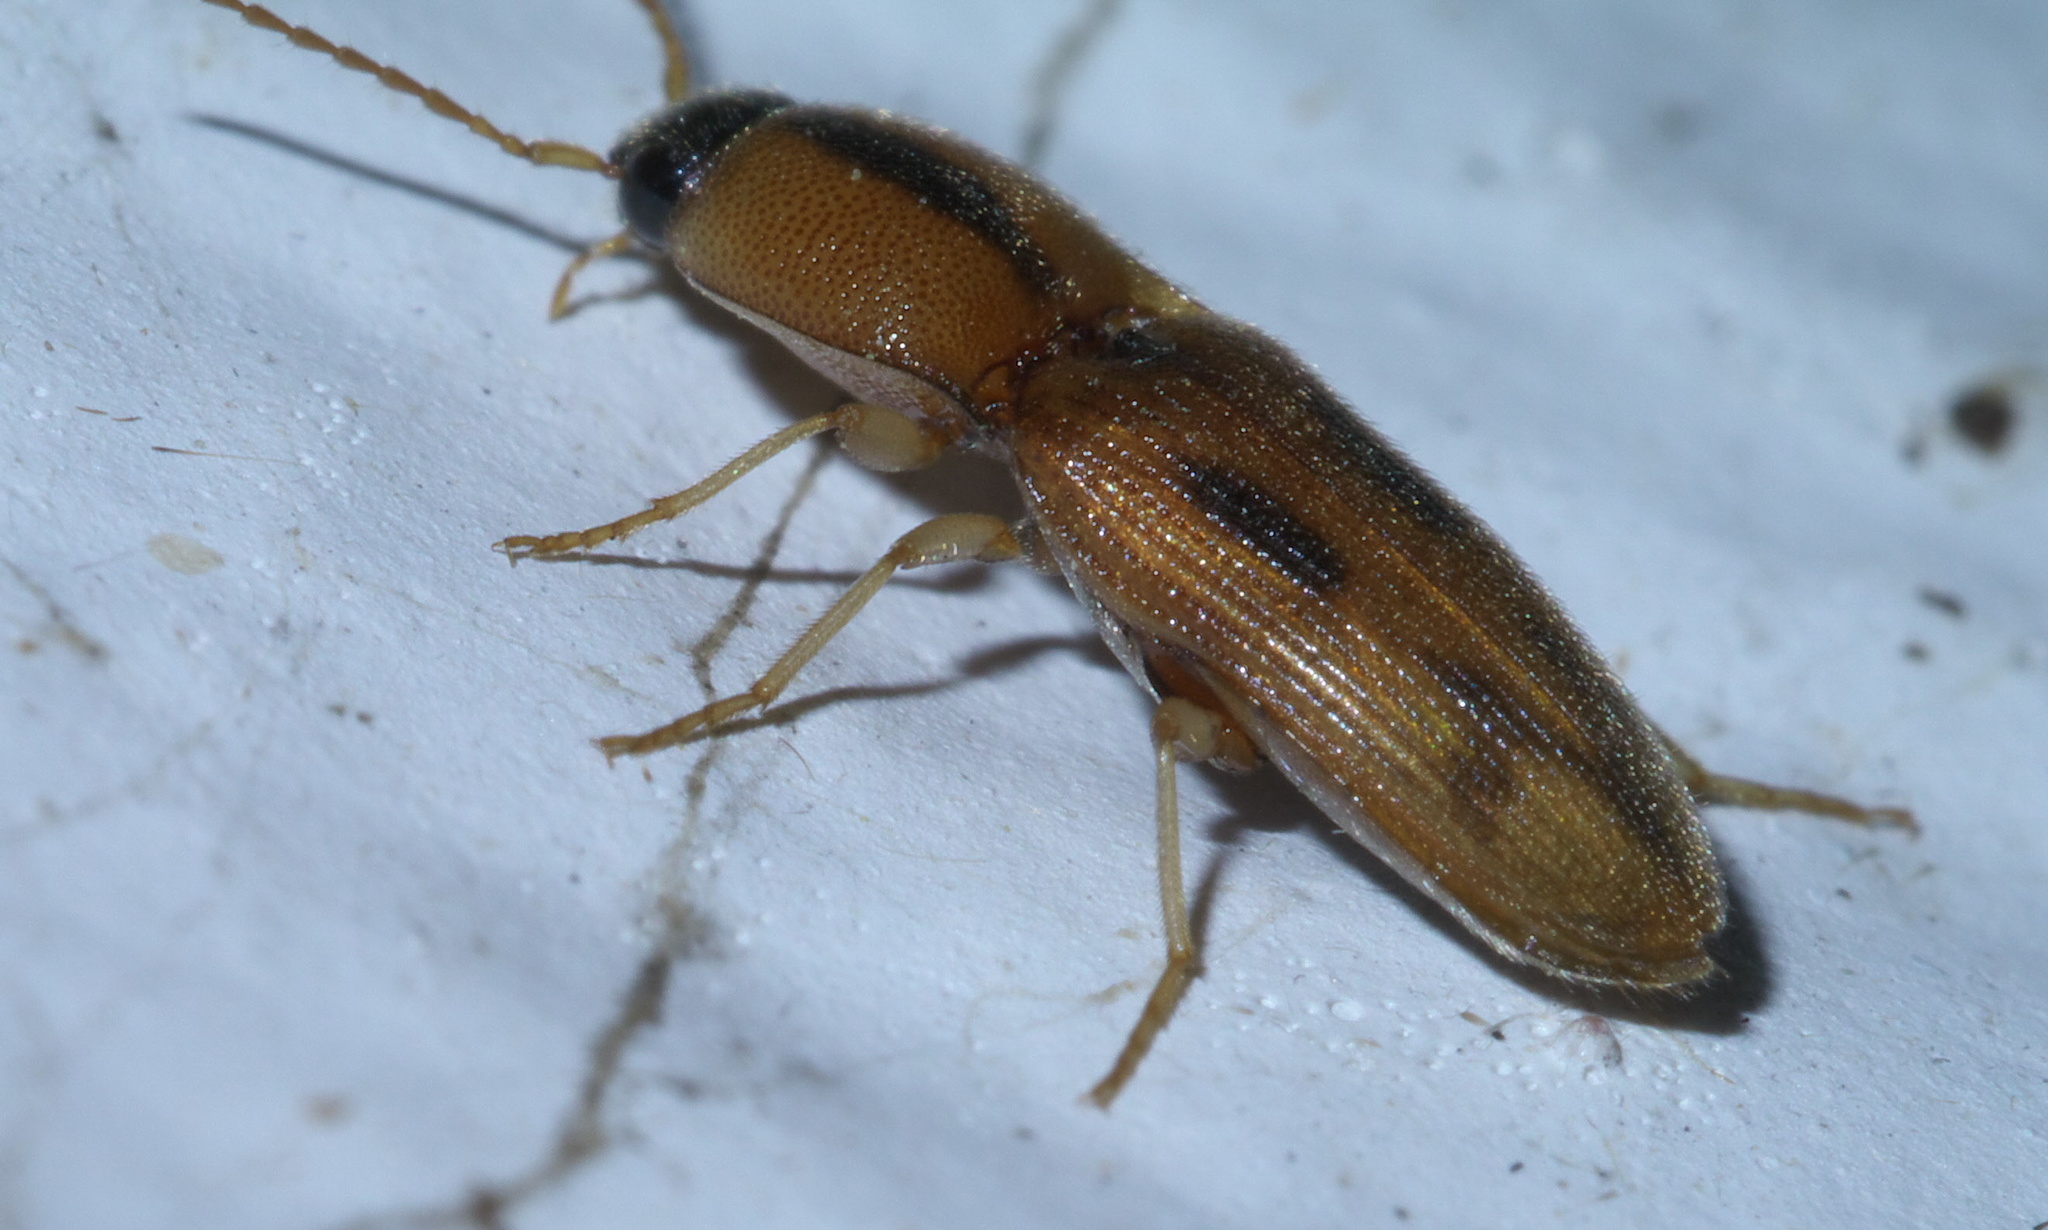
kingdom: Animalia
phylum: Arthropoda
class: Insecta
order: Coleoptera
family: Elateridae
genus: Aeolus
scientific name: Aeolus
